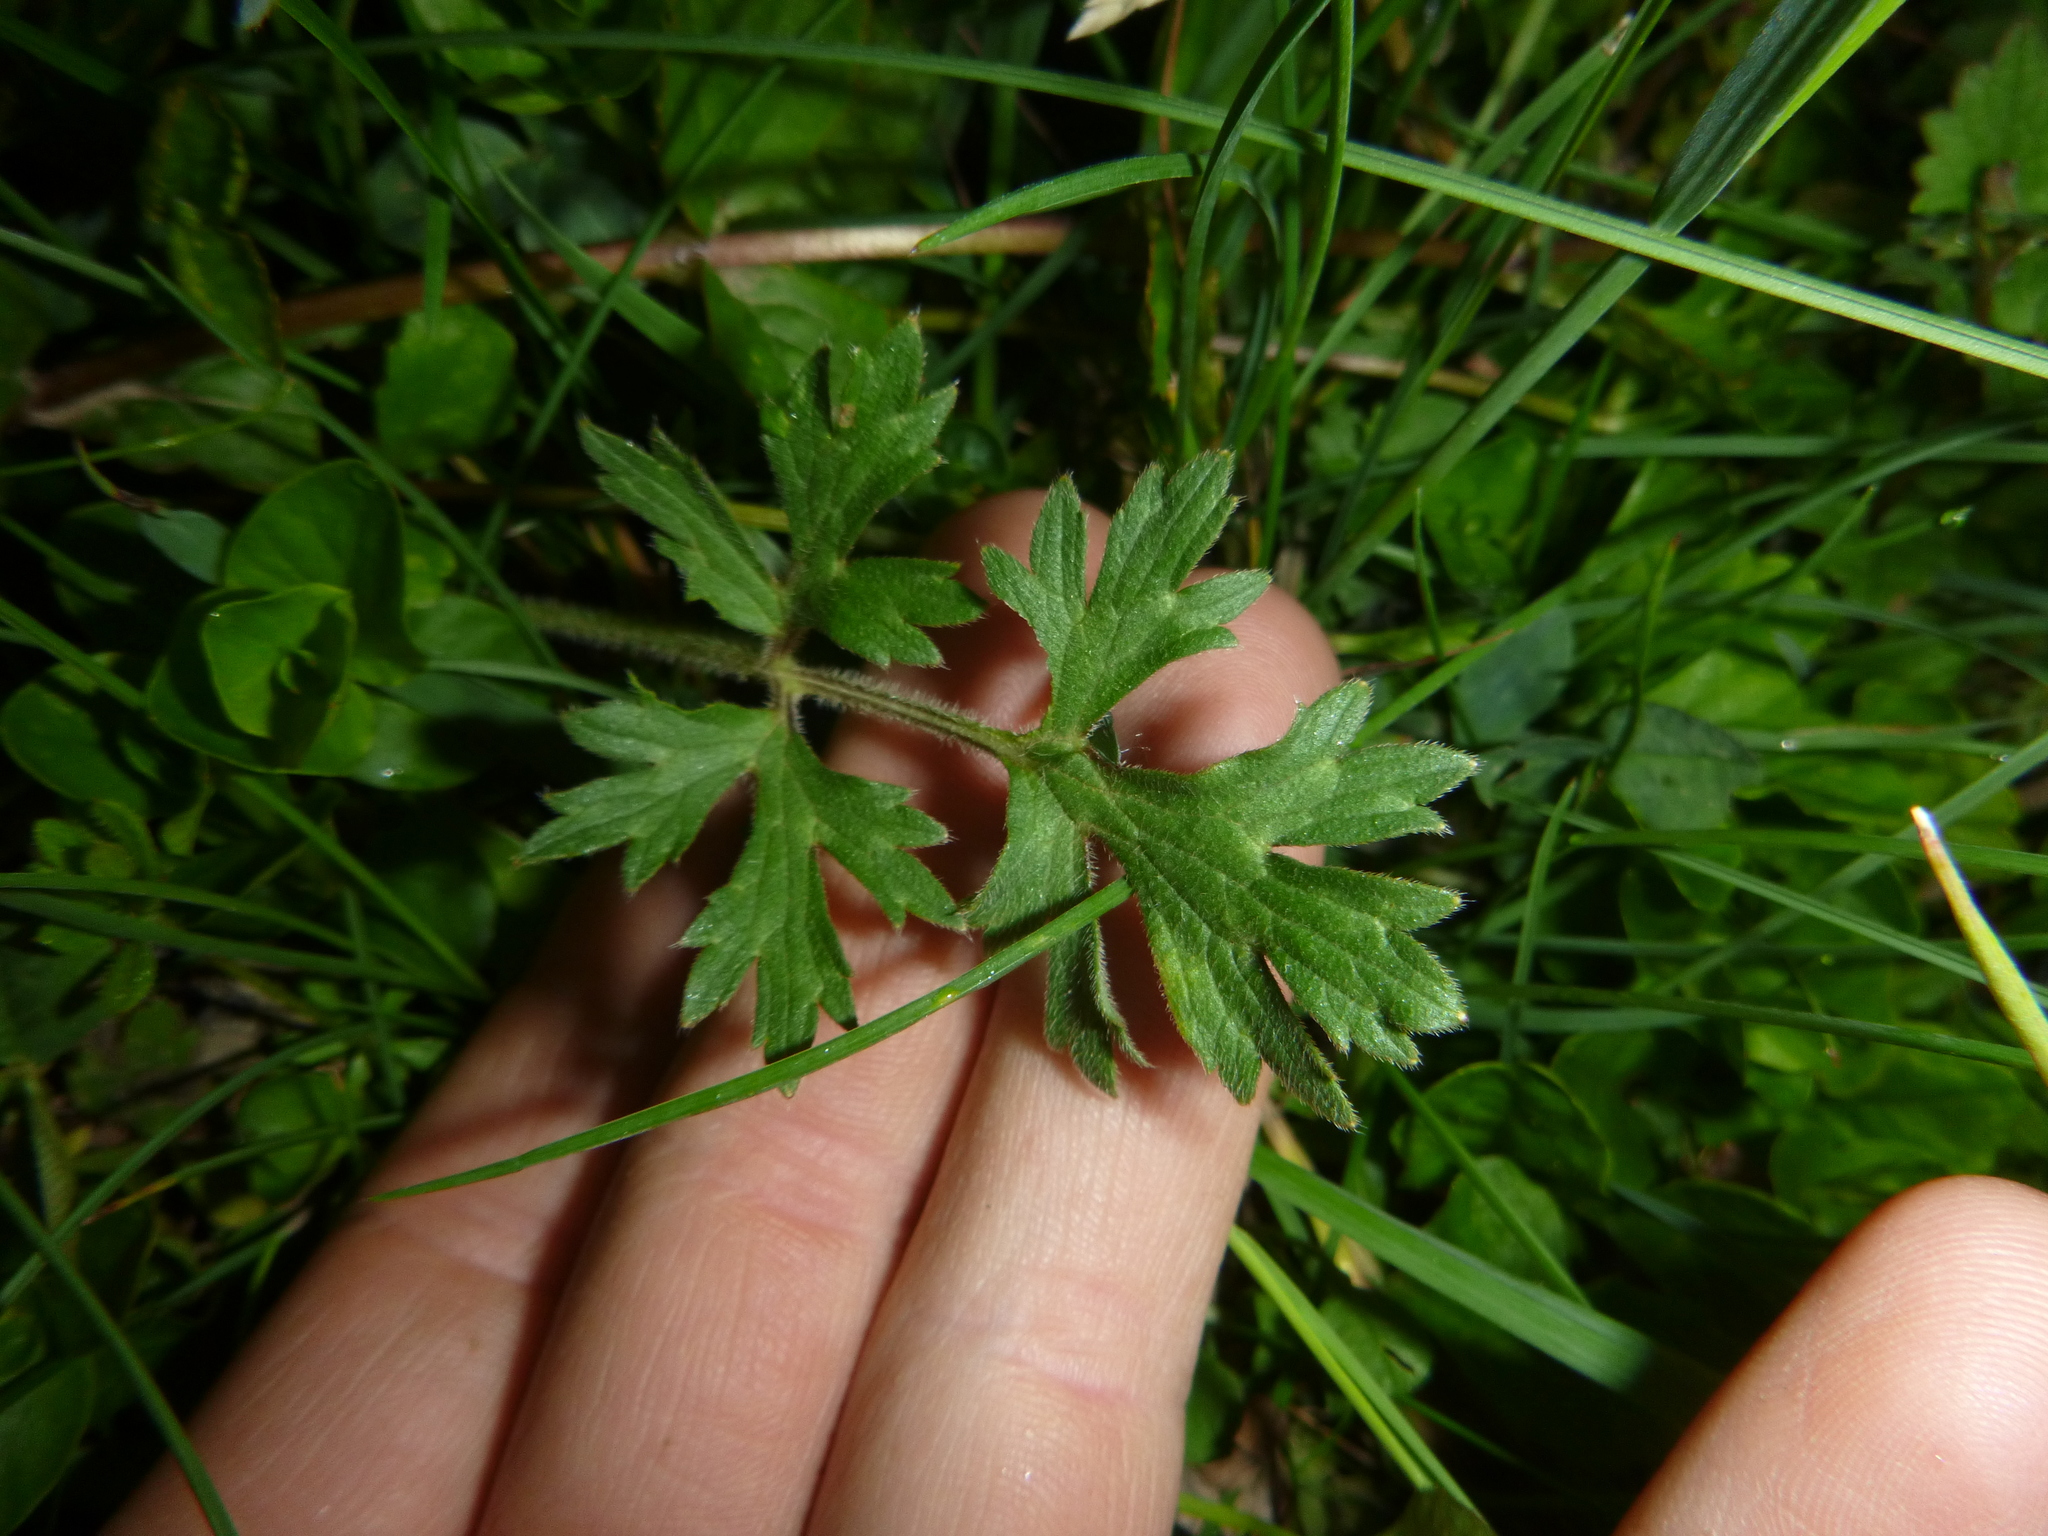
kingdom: Plantae
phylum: Tracheophyta
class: Magnoliopsida
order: Ranunculales
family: Ranunculaceae
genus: Ranunculus
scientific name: Ranunculus bulbosus
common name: Bulbous buttercup
